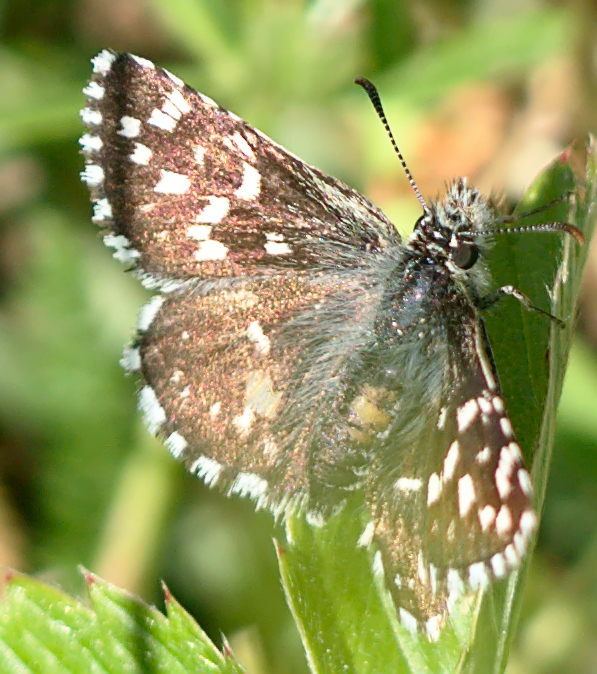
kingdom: Animalia
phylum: Arthropoda
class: Insecta
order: Lepidoptera
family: Hesperiidae
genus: Pyrgus
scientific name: Pyrgus malvae
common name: Grizzled skipper
